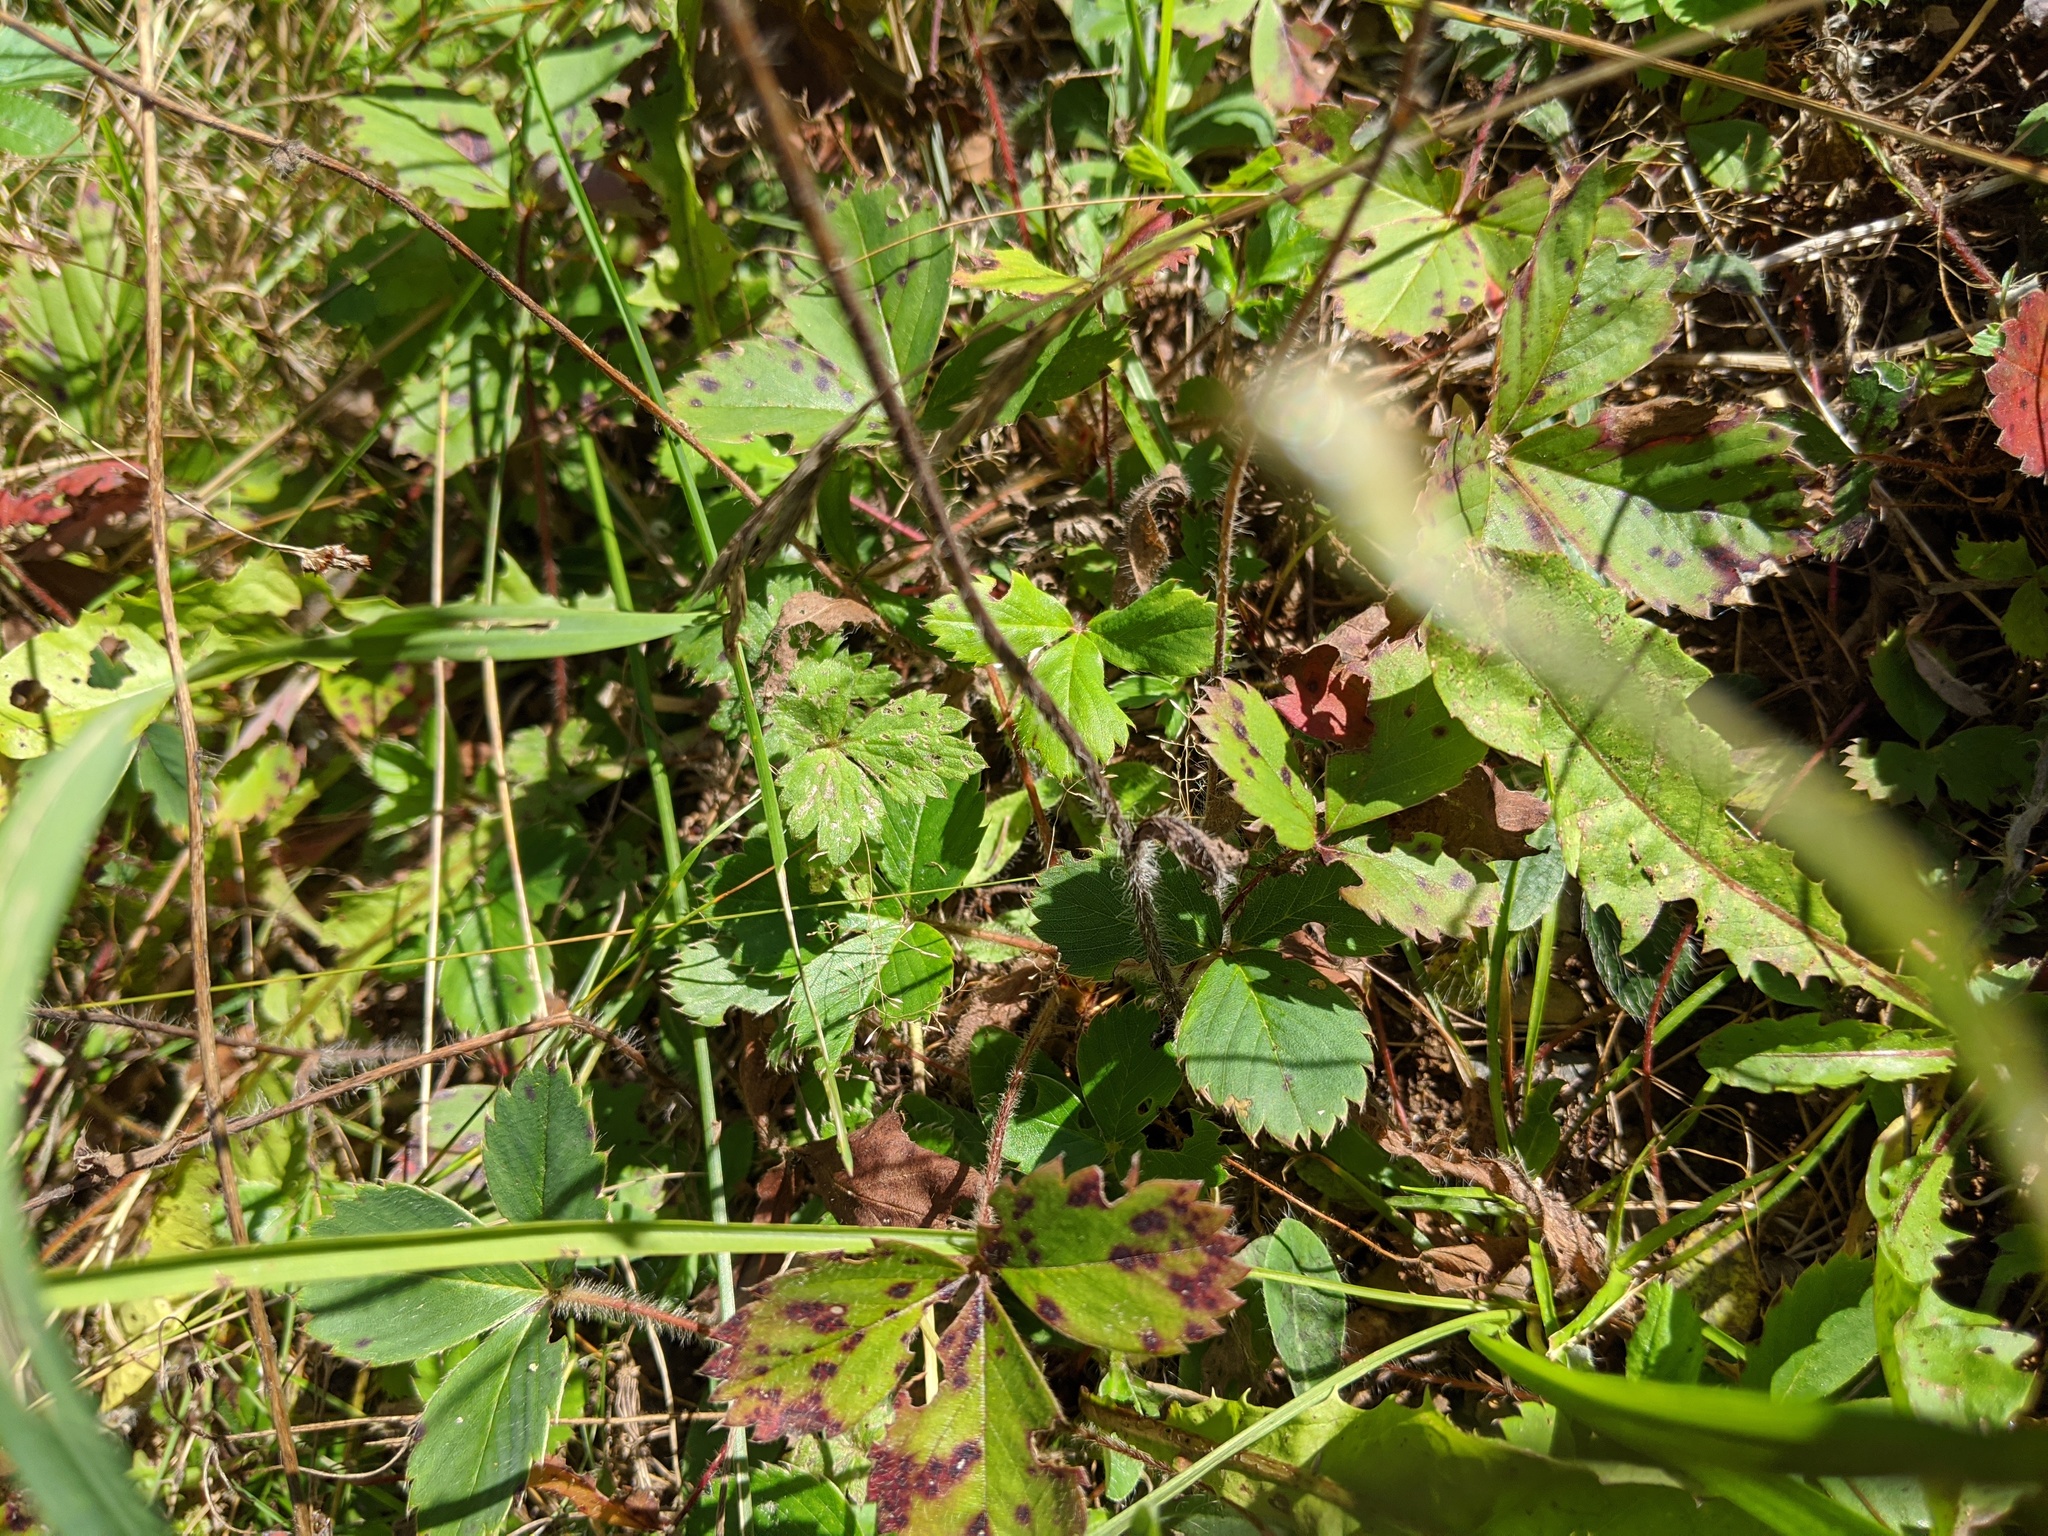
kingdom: Plantae
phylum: Tracheophyta
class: Magnoliopsida
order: Rosales
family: Rosaceae
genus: Fragaria
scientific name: Fragaria virginiana
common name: Thickleaved wild strawberry
